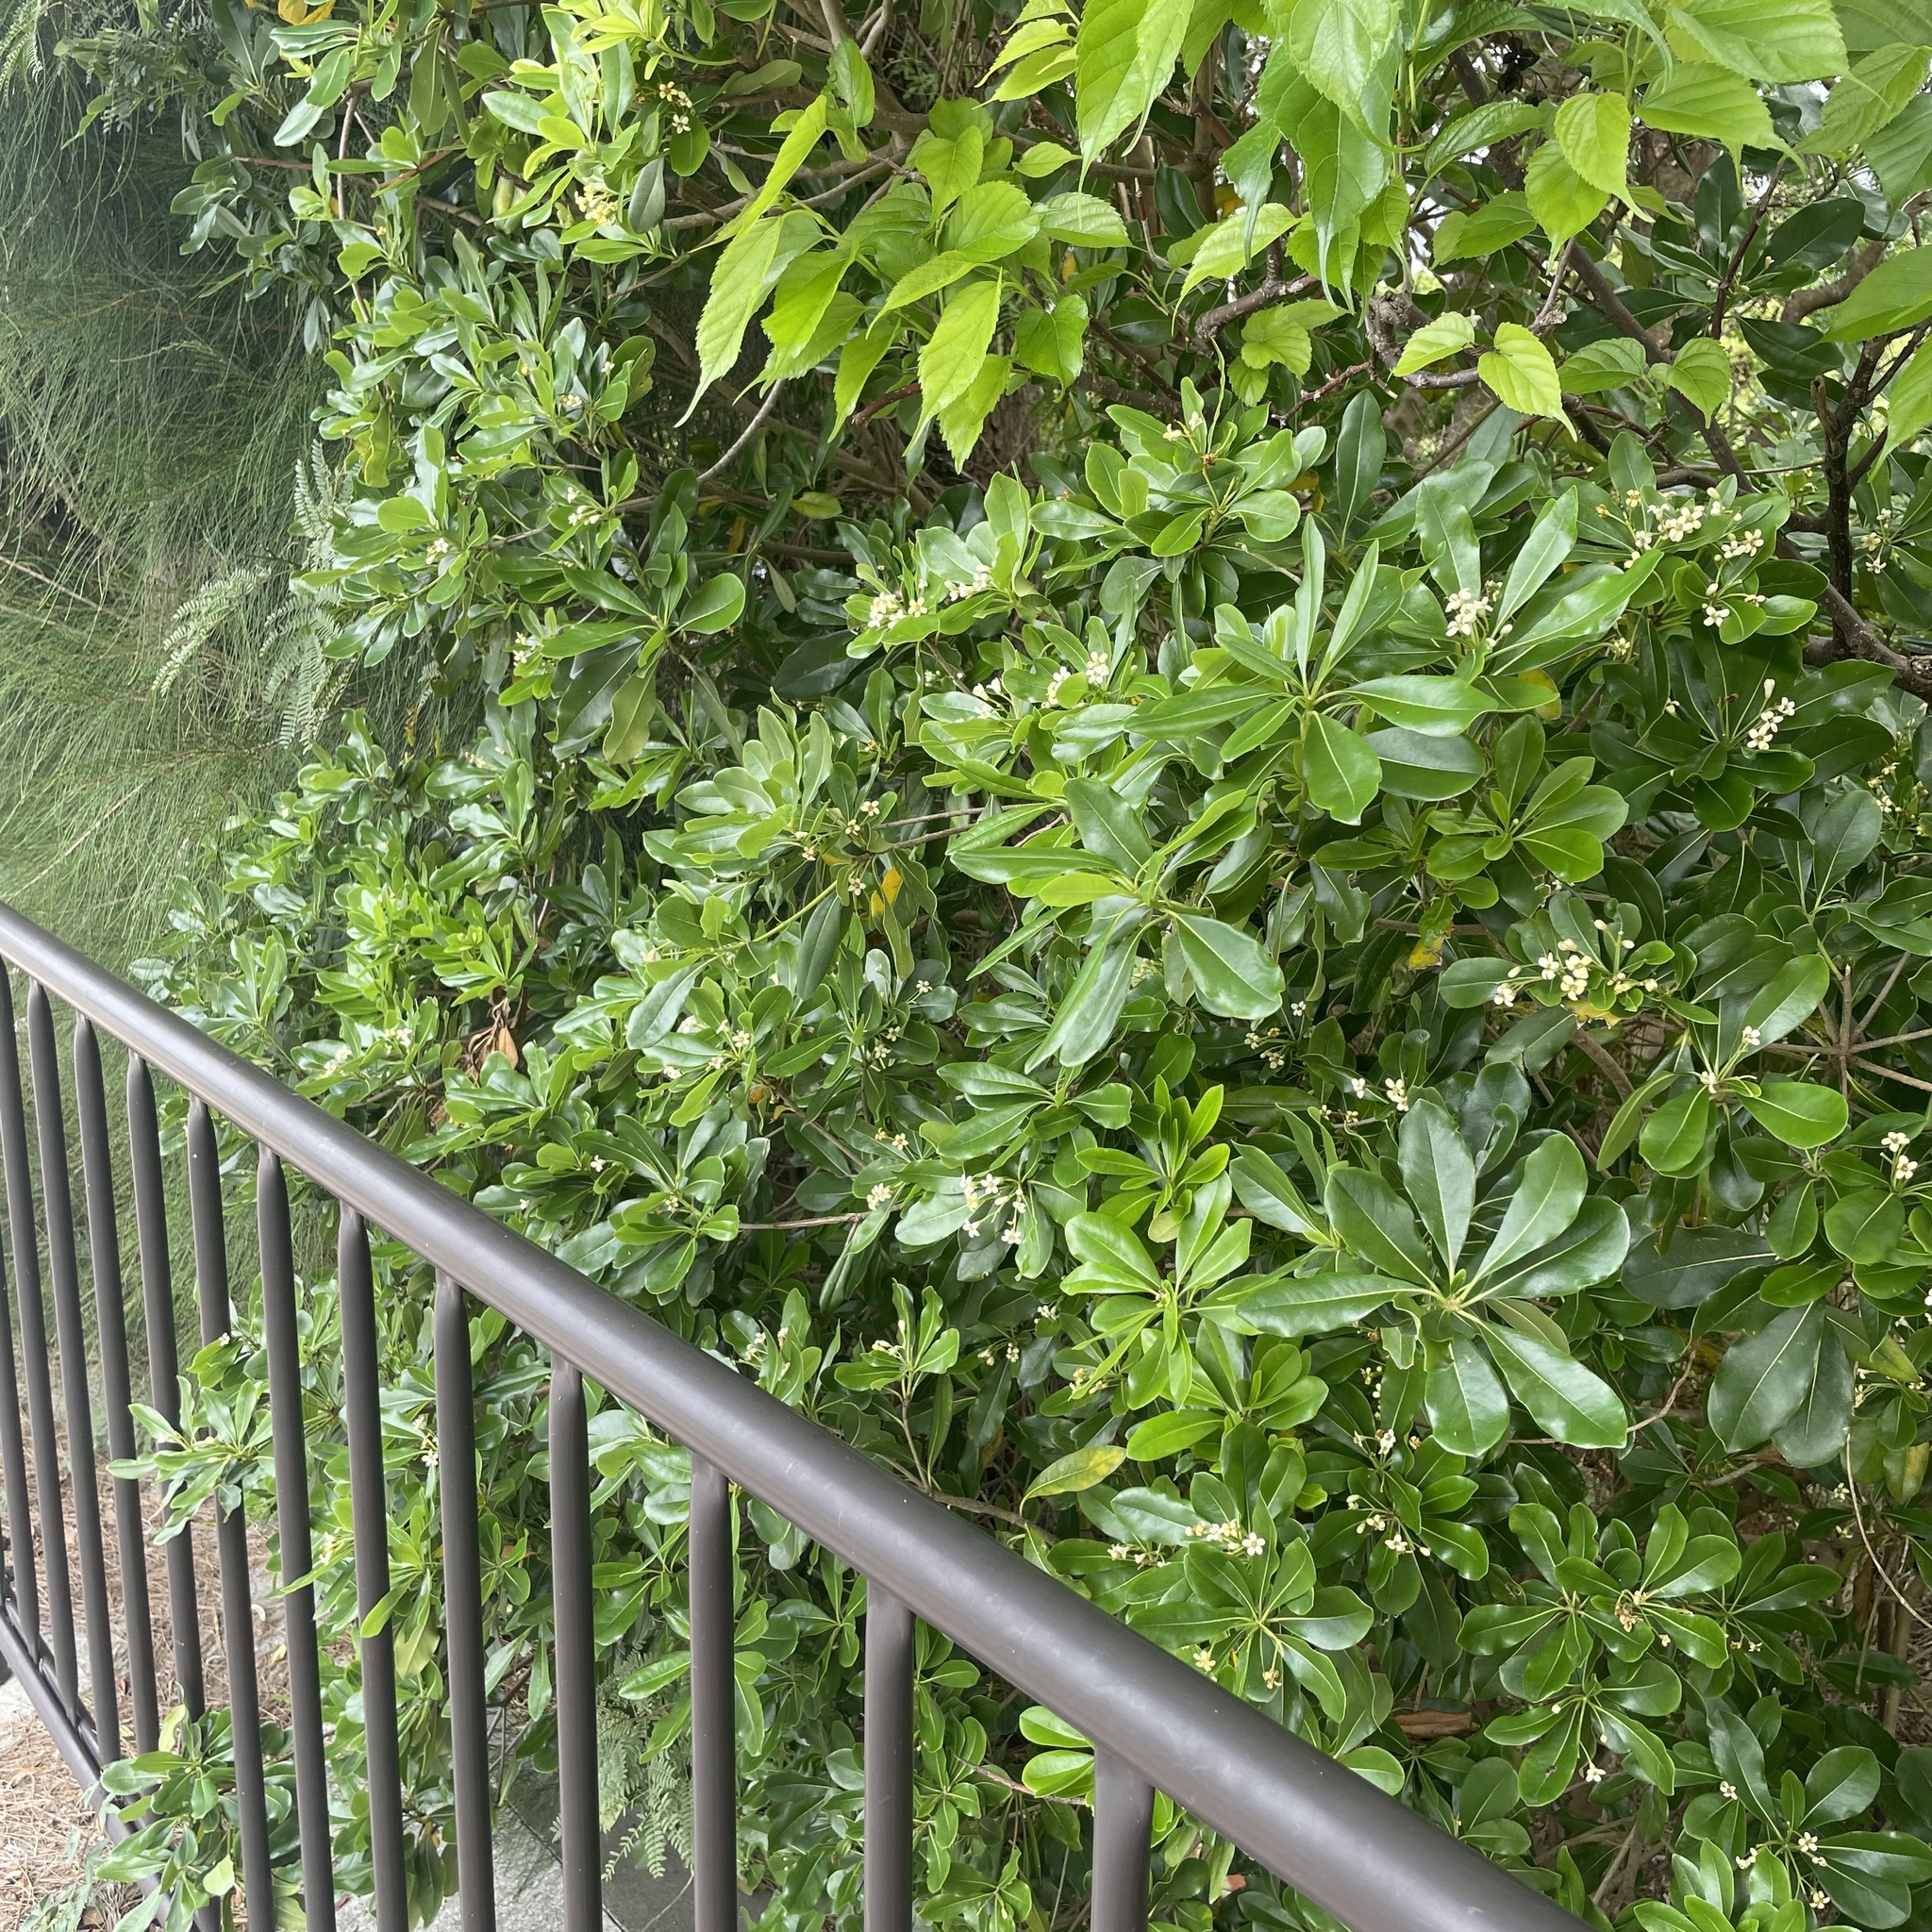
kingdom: Plantae
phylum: Tracheophyta
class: Magnoliopsida
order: Apiales
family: Pittosporaceae
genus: Pittosporum
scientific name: Pittosporum tobira
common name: Japanese cheesewood
